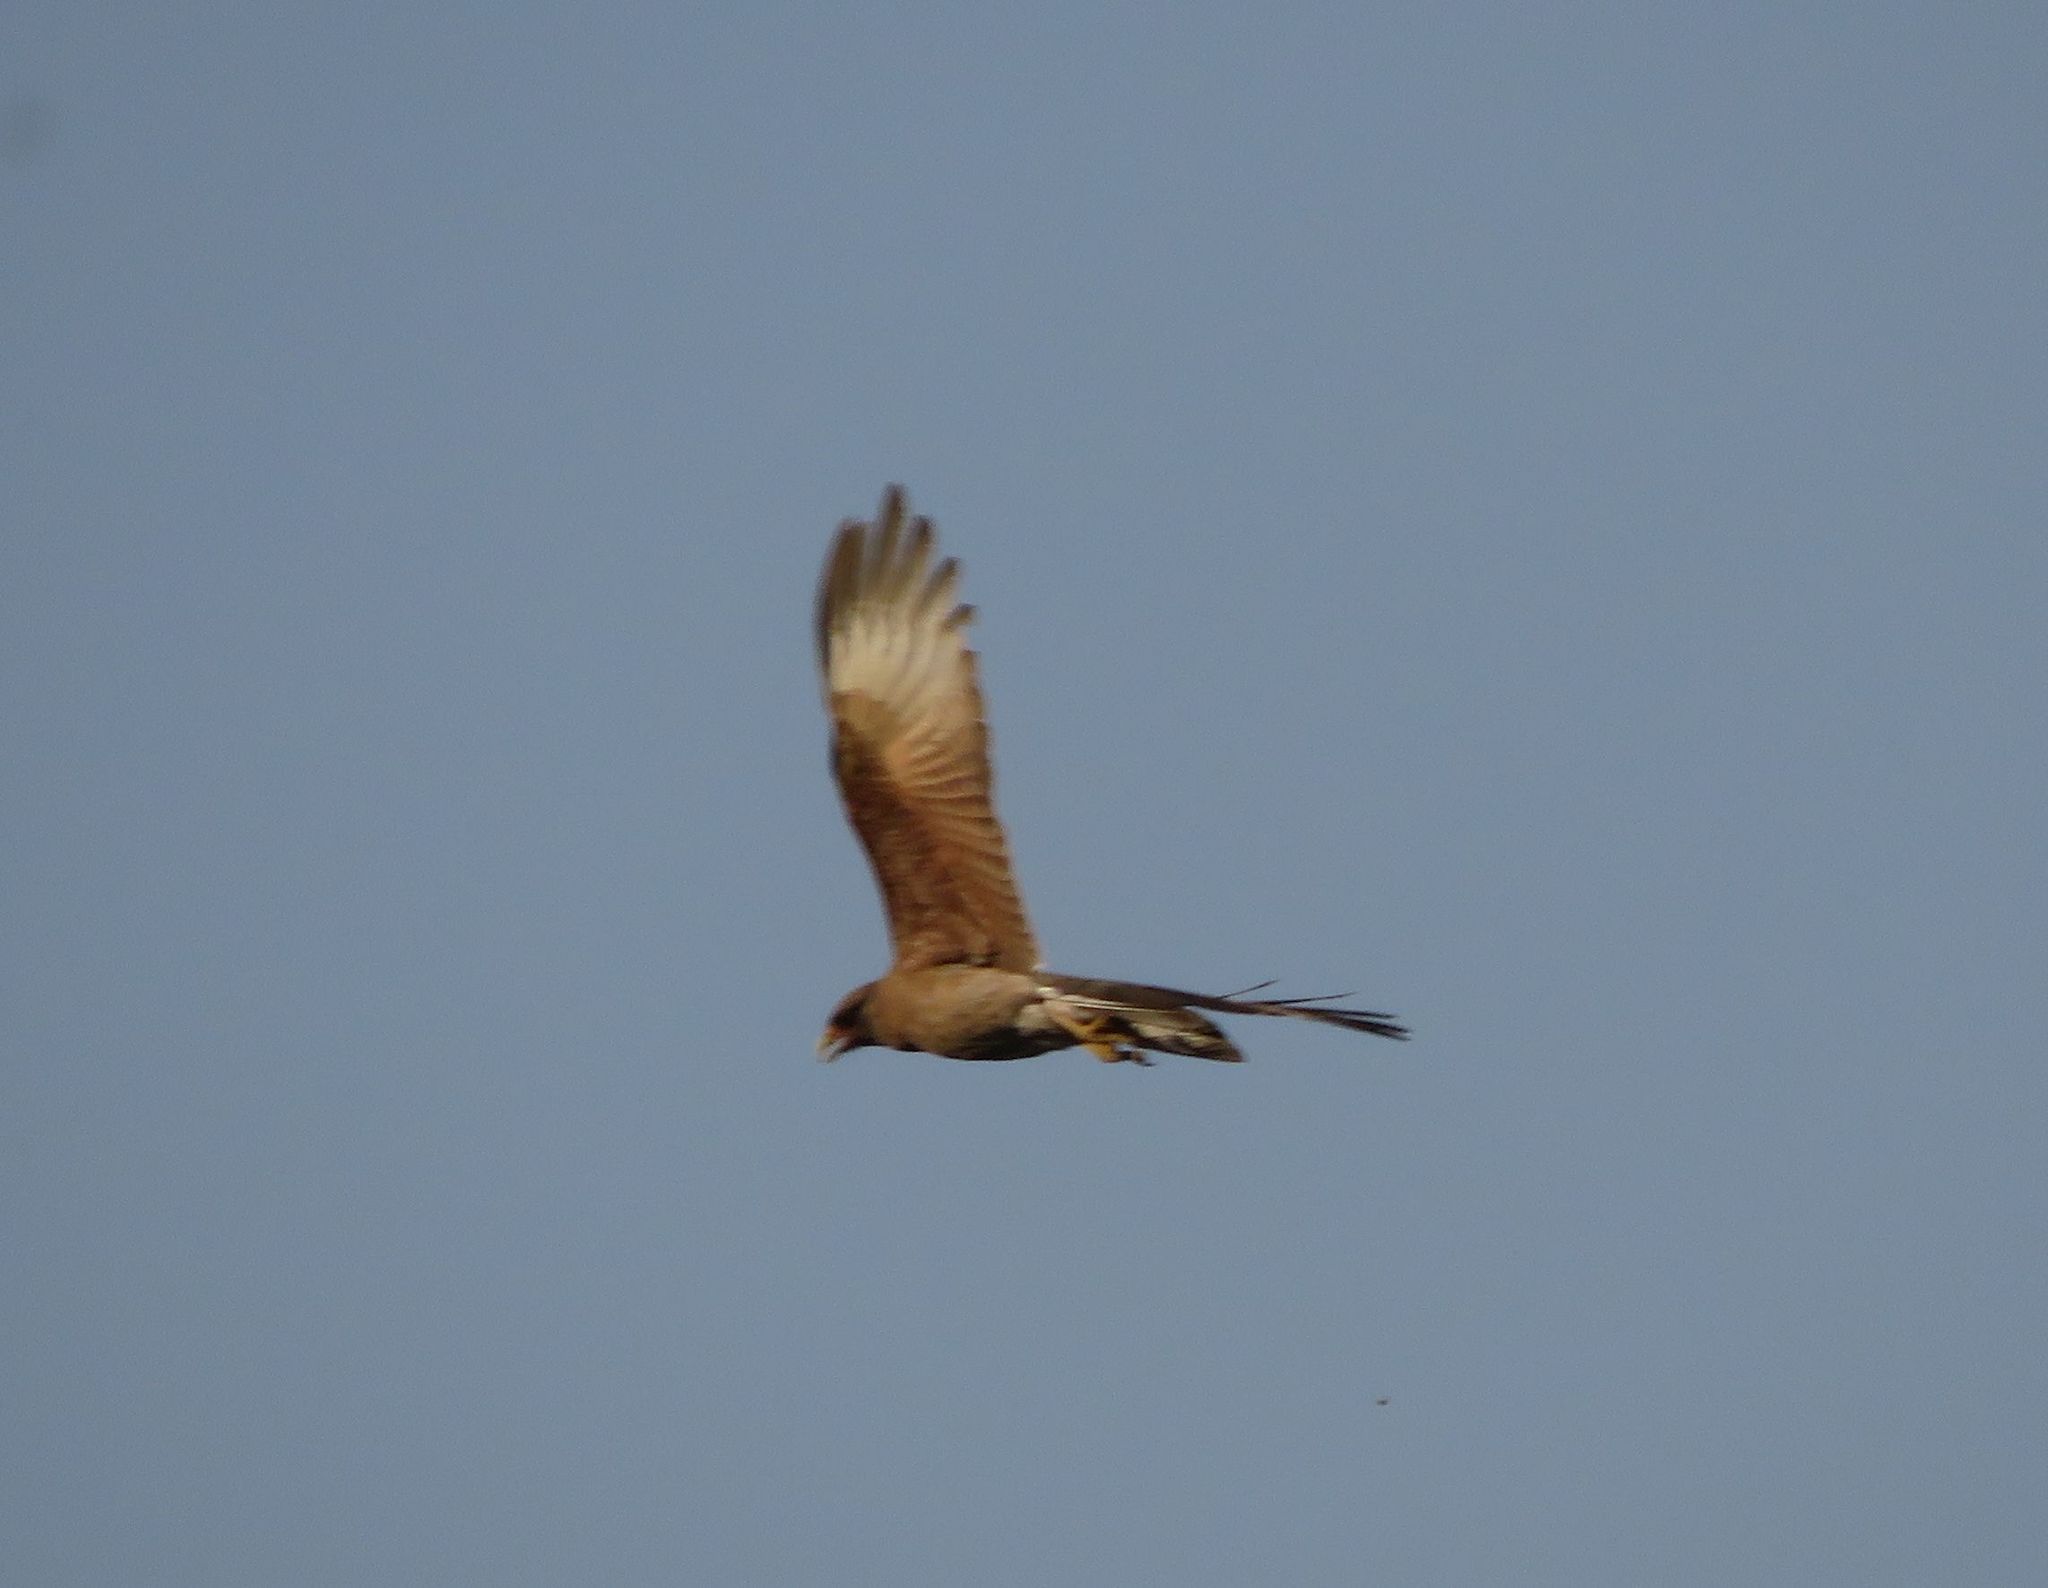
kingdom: Animalia
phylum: Chordata
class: Aves
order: Falconiformes
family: Falconidae
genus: Daptrius
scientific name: Daptrius
